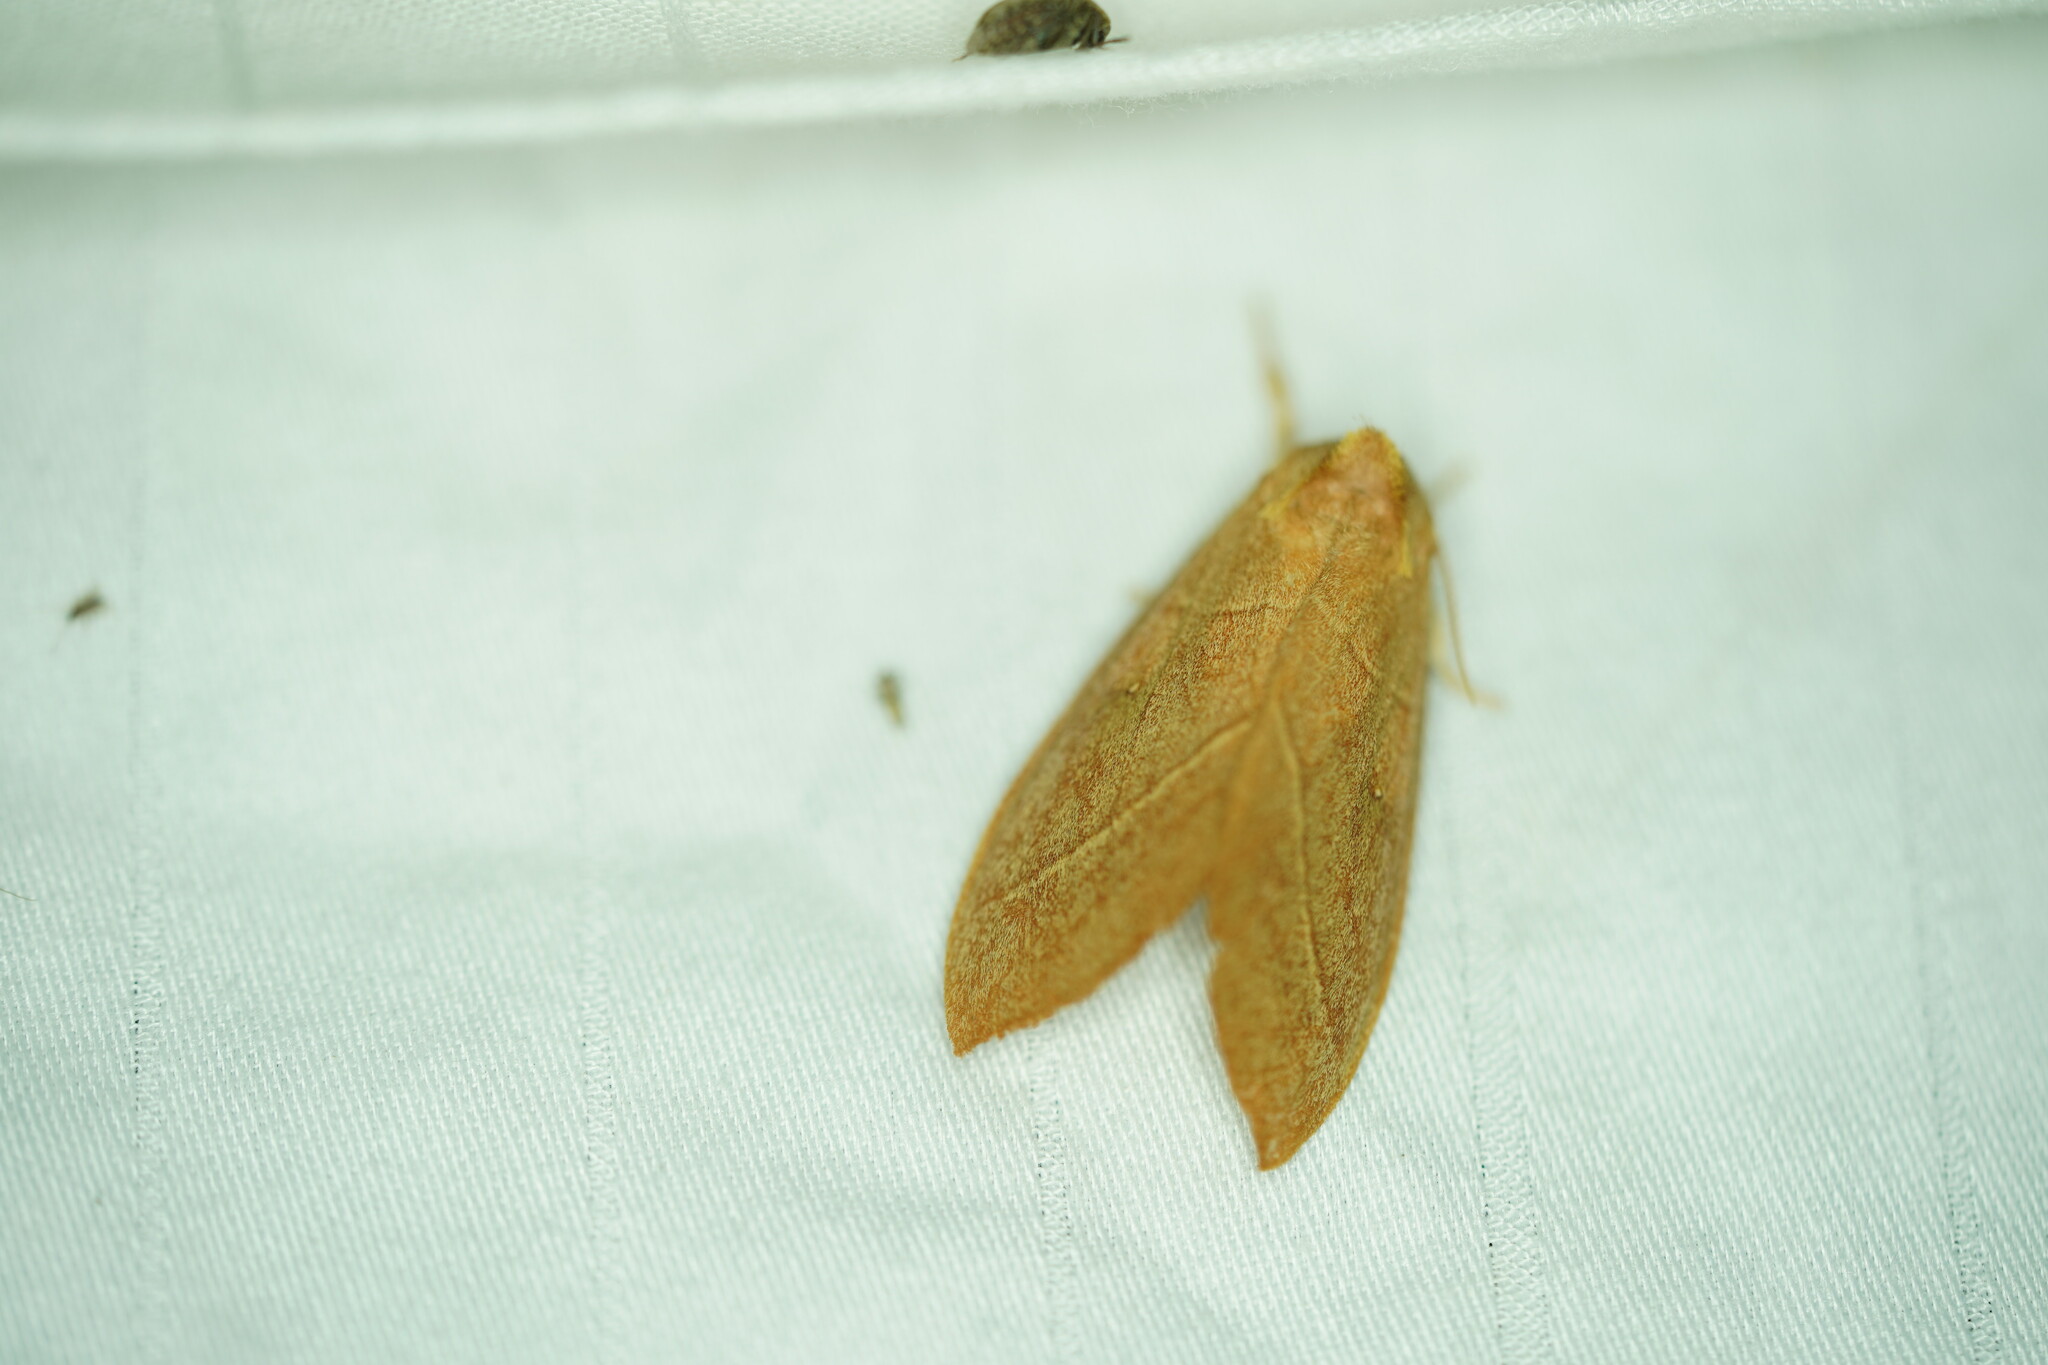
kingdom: Animalia
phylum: Arthropoda
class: Insecta
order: Lepidoptera
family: Notodontidae
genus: Nadata
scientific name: Nadata gibbosa
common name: White-dotted prominent
